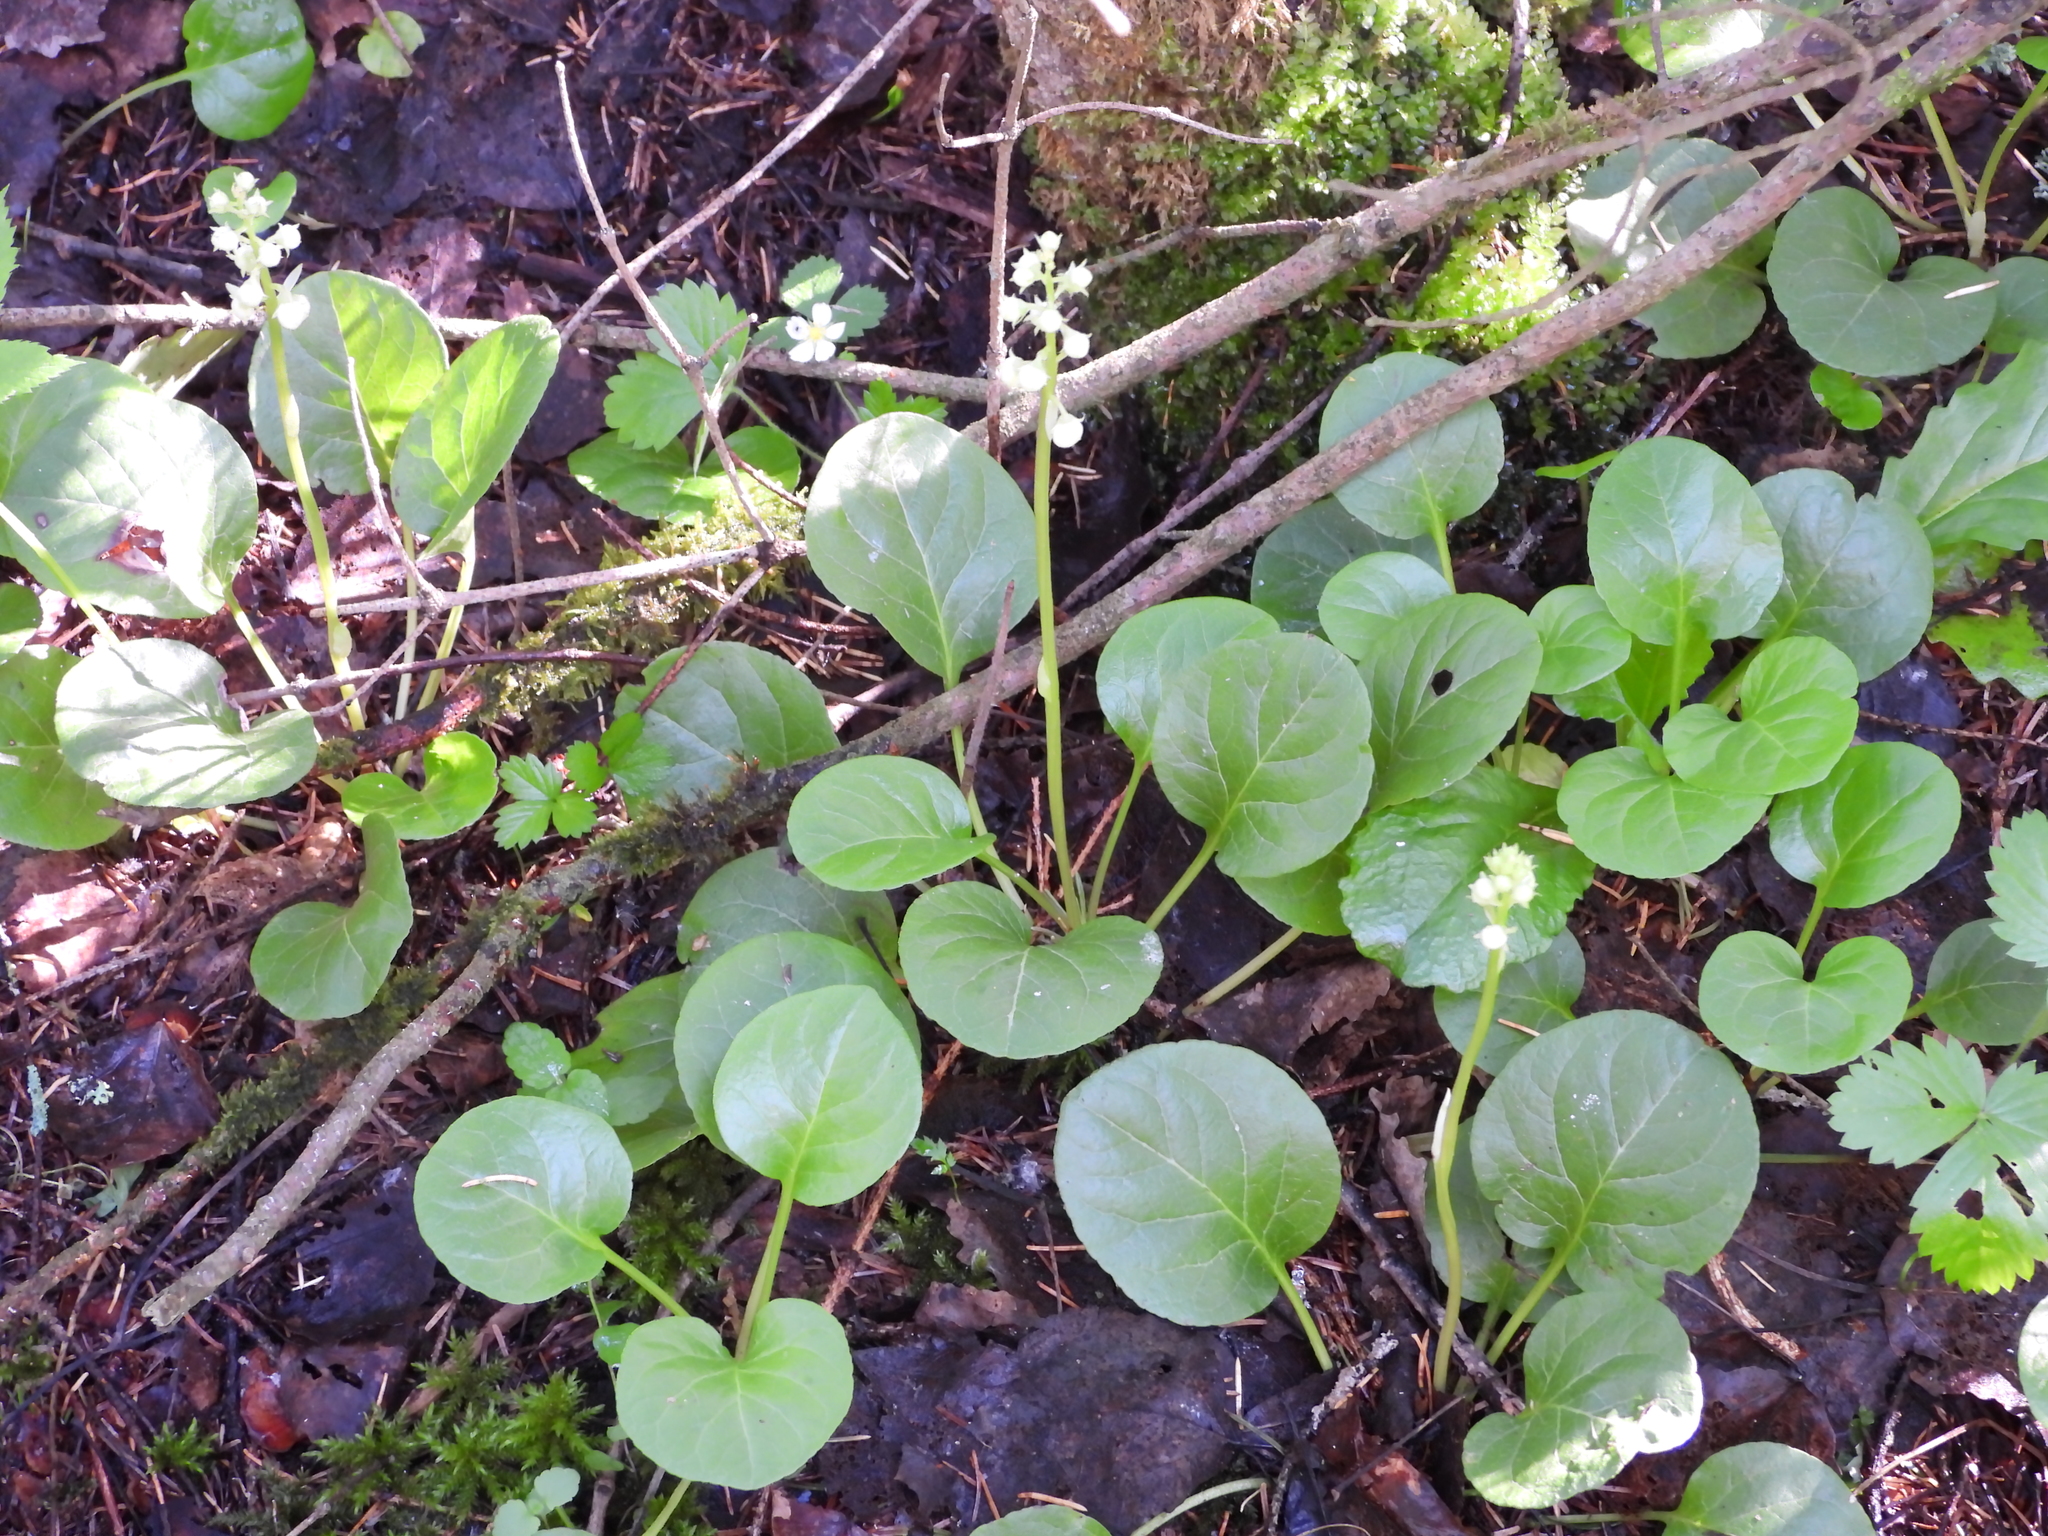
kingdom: Plantae
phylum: Tracheophyta
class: Magnoliopsida
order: Ericales
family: Ericaceae
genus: Pyrola
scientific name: Pyrola rotundifolia
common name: Round-leaved wintergreen
